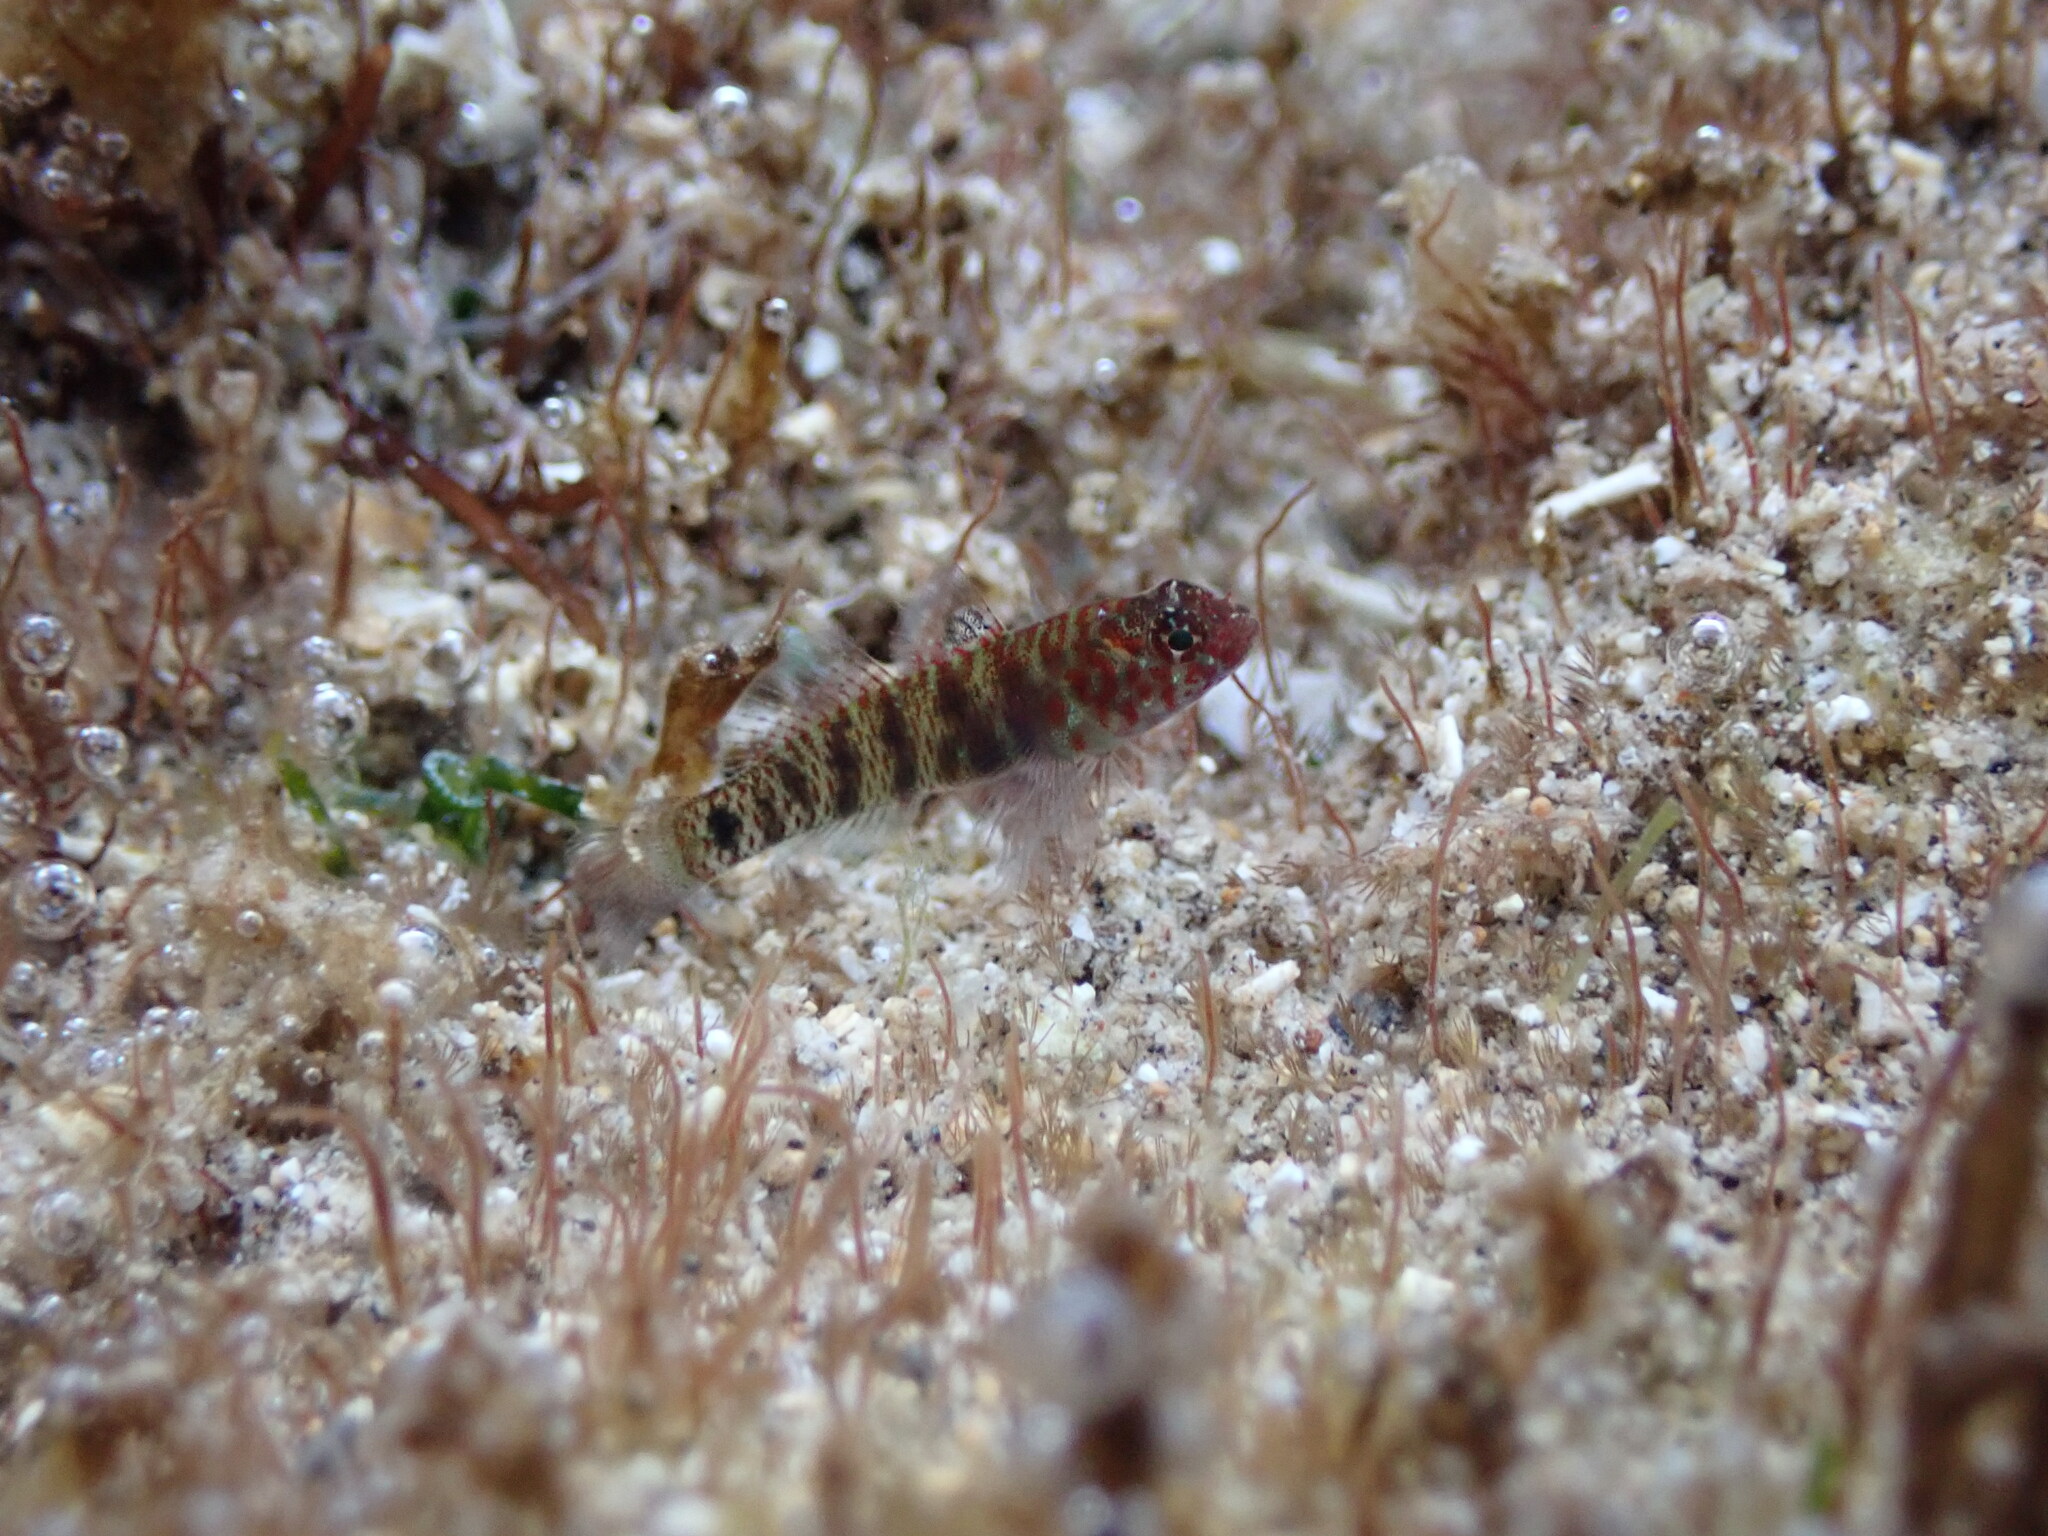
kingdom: Animalia
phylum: Chordata
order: Perciformes
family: Gobiidae
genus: Eviota
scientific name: Eviota prasina
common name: Green bubble goby
